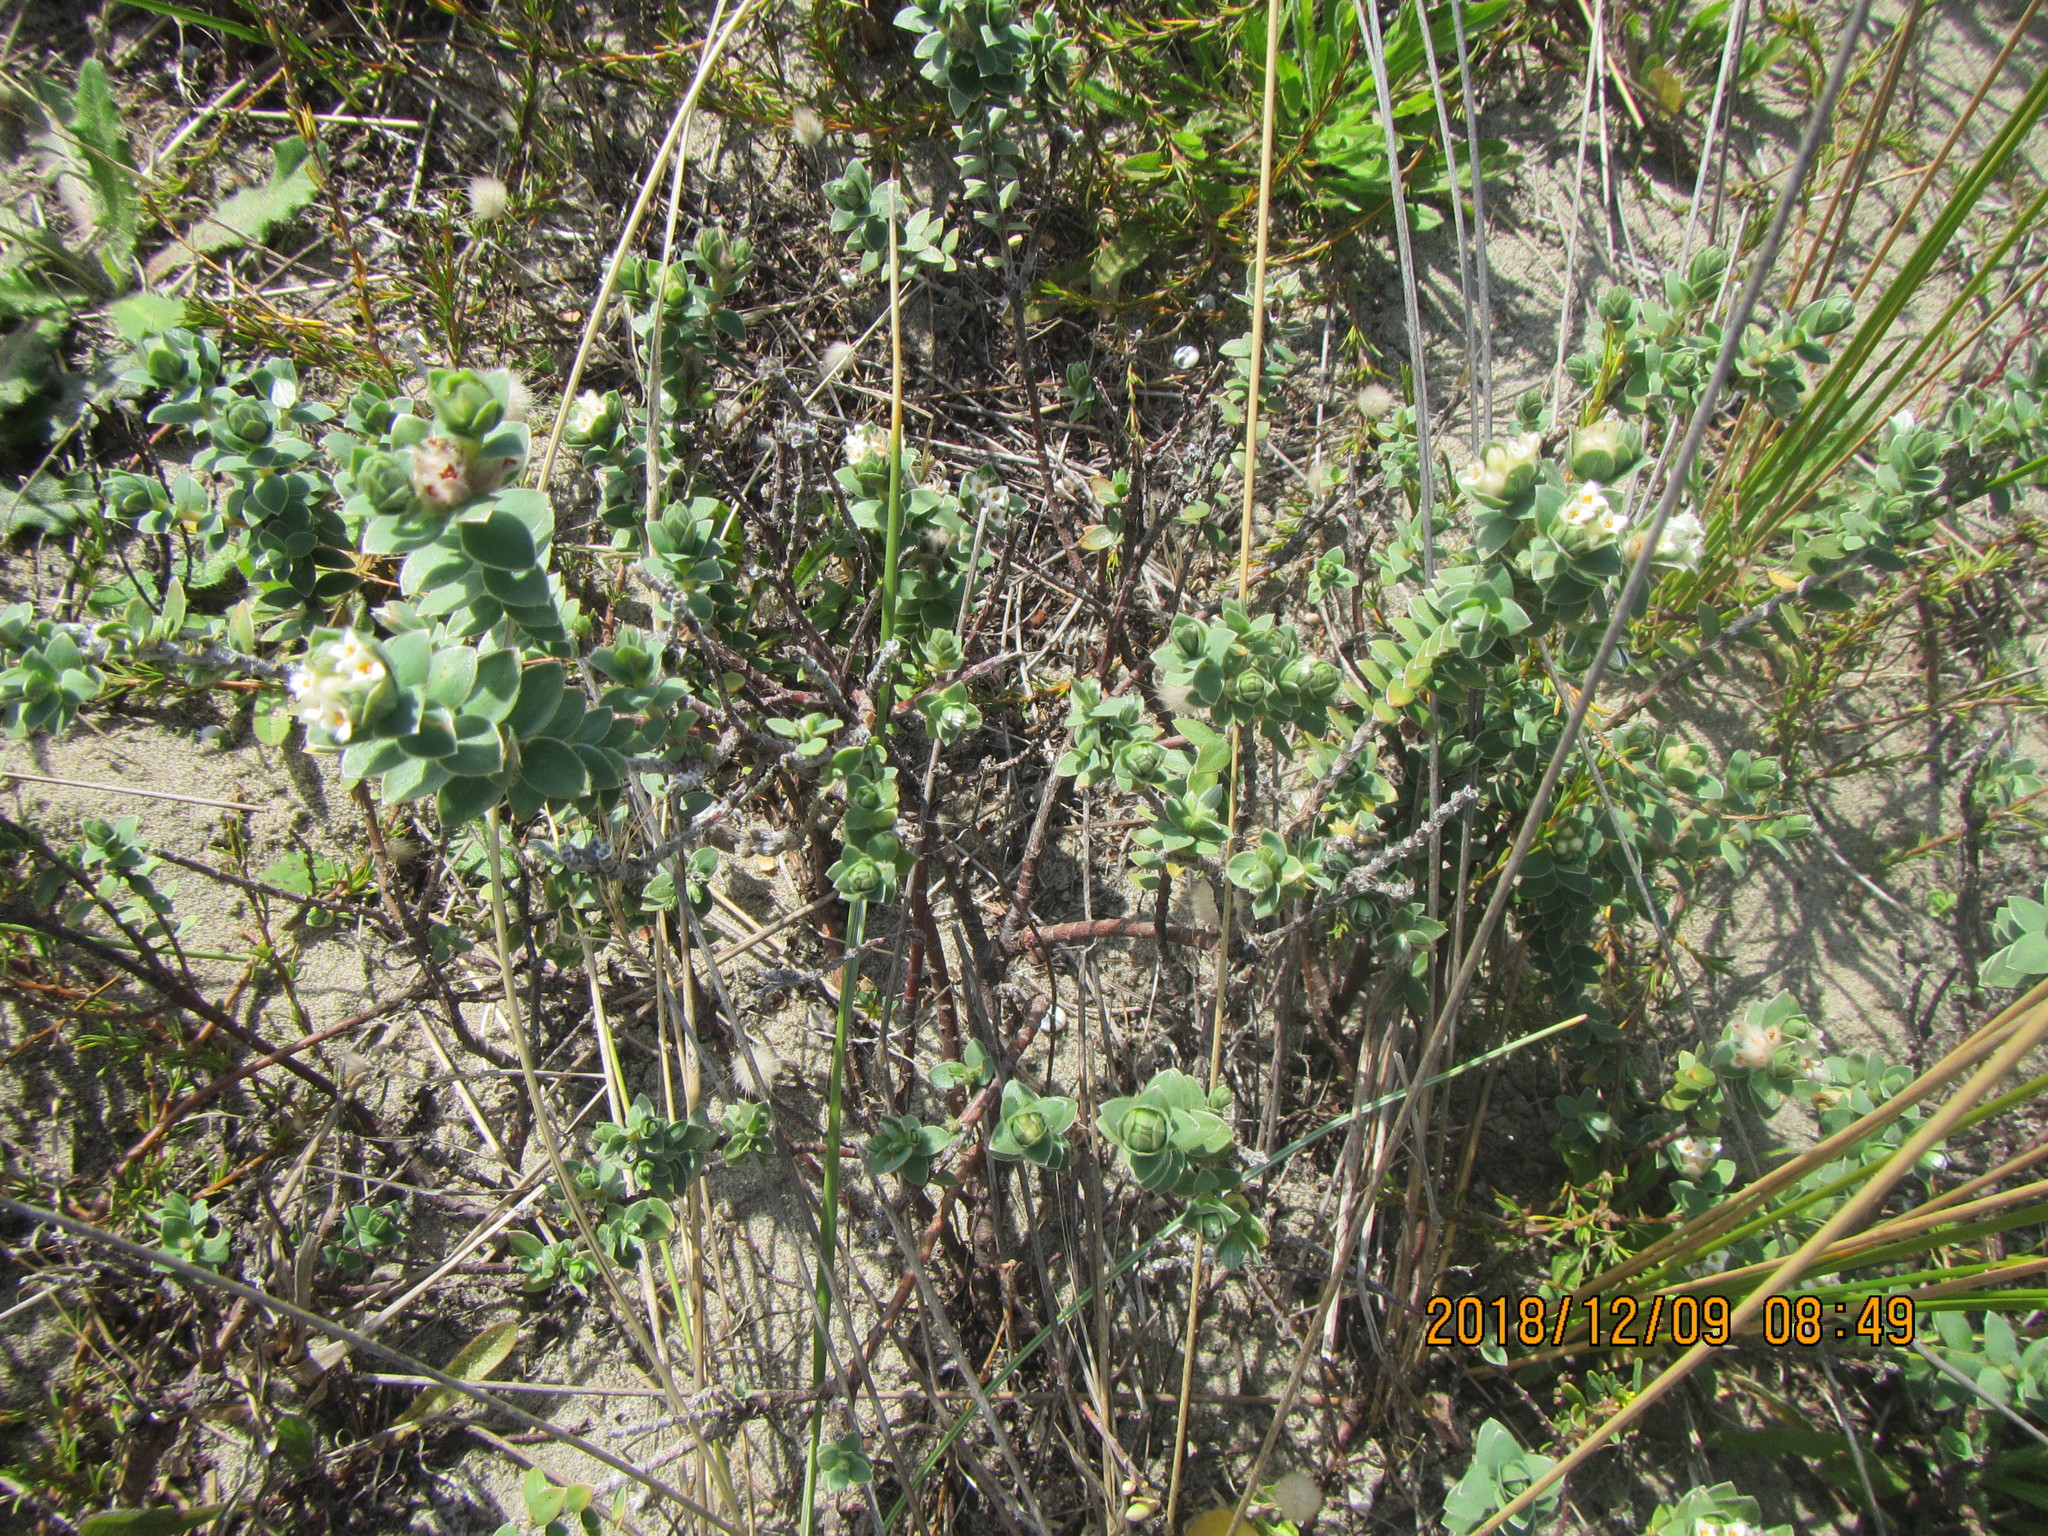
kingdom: Plantae
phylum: Tracheophyta
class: Magnoliopsida
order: Malvales
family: Thymelaeaceae
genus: Pimelea
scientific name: Pimelea villosa
